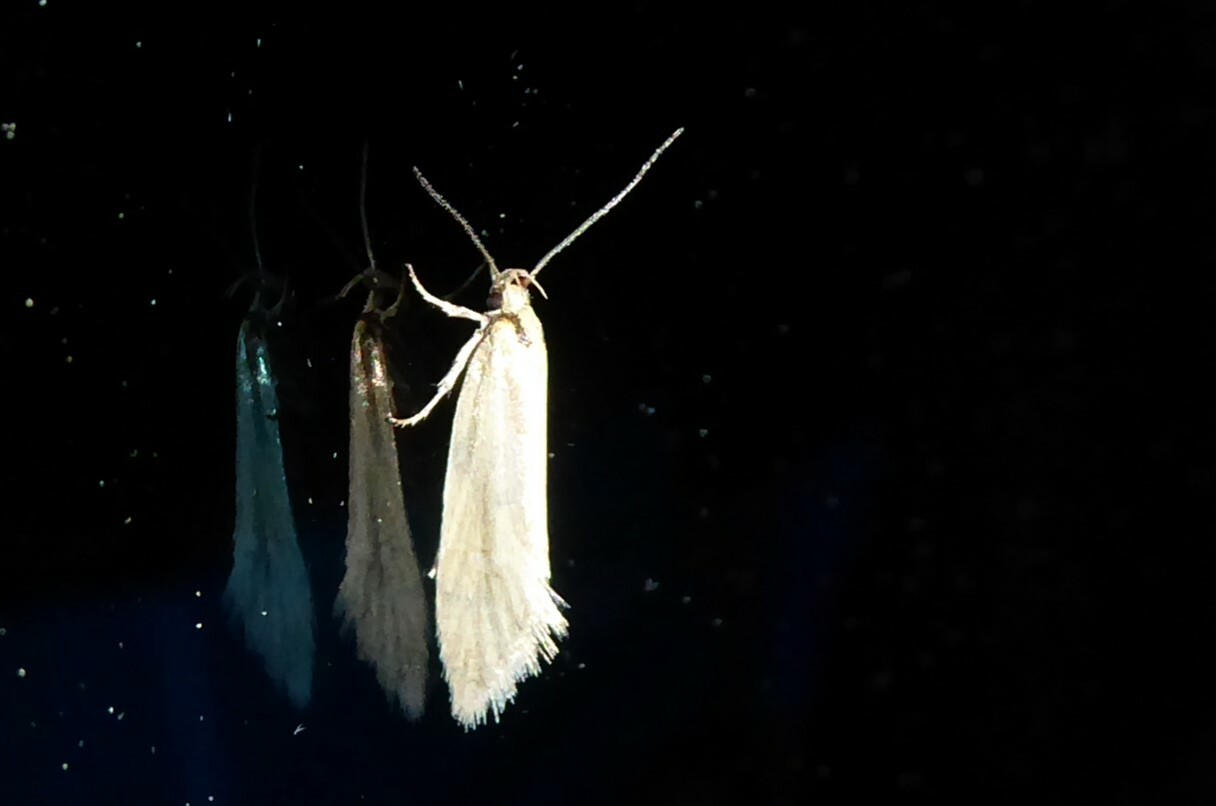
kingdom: Animalia
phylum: Arthropoda
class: Insecta
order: Lepidoptera
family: Oecophoridae
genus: Tingena
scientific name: Tingena chloradelpha
